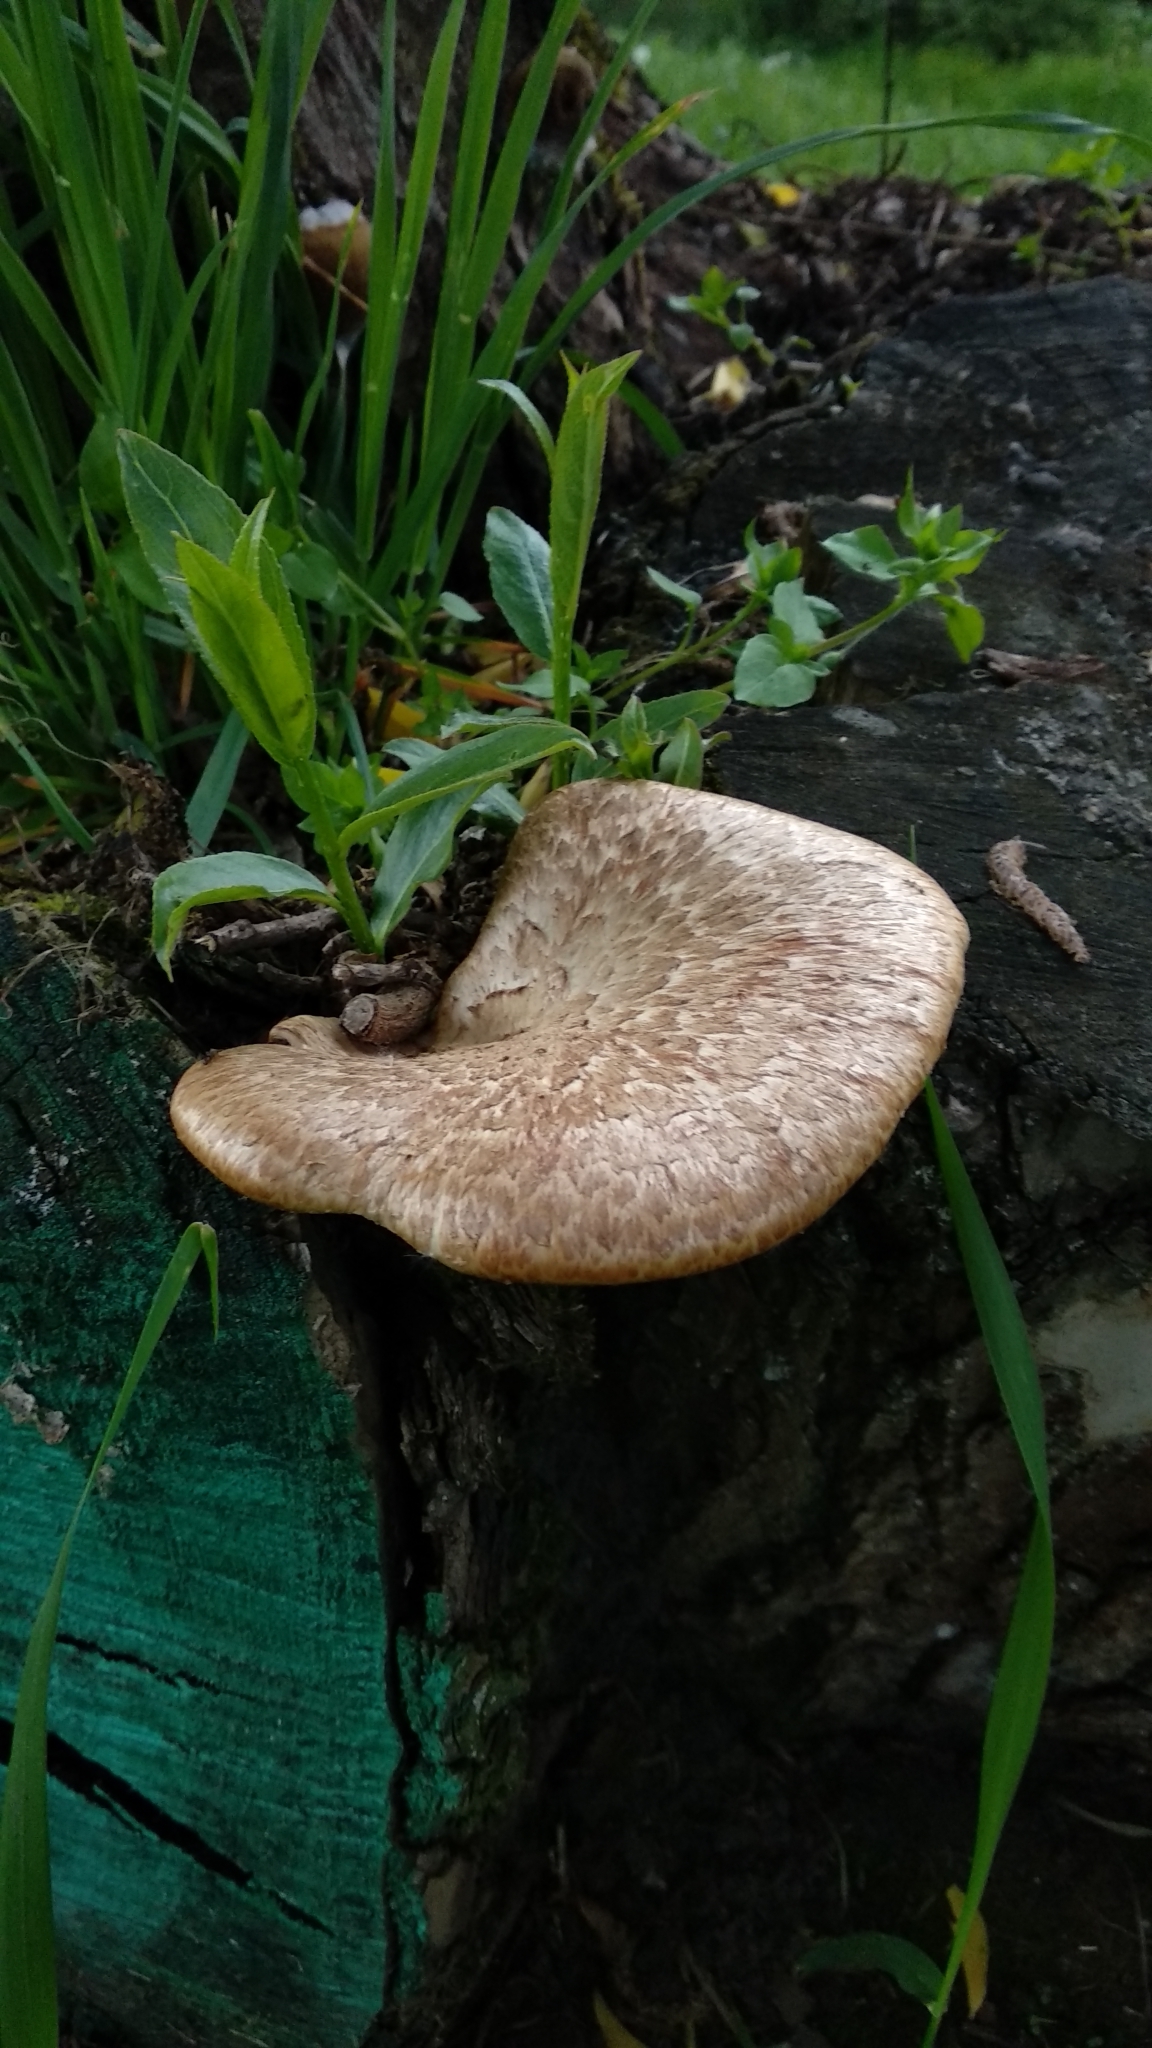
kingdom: Fungi
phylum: Basidiomycota
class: Agaricomycetes
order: Polyporales
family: Polyporaceae
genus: Polyporus
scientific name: Polyporus tuberaster
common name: Tuberous polypore
